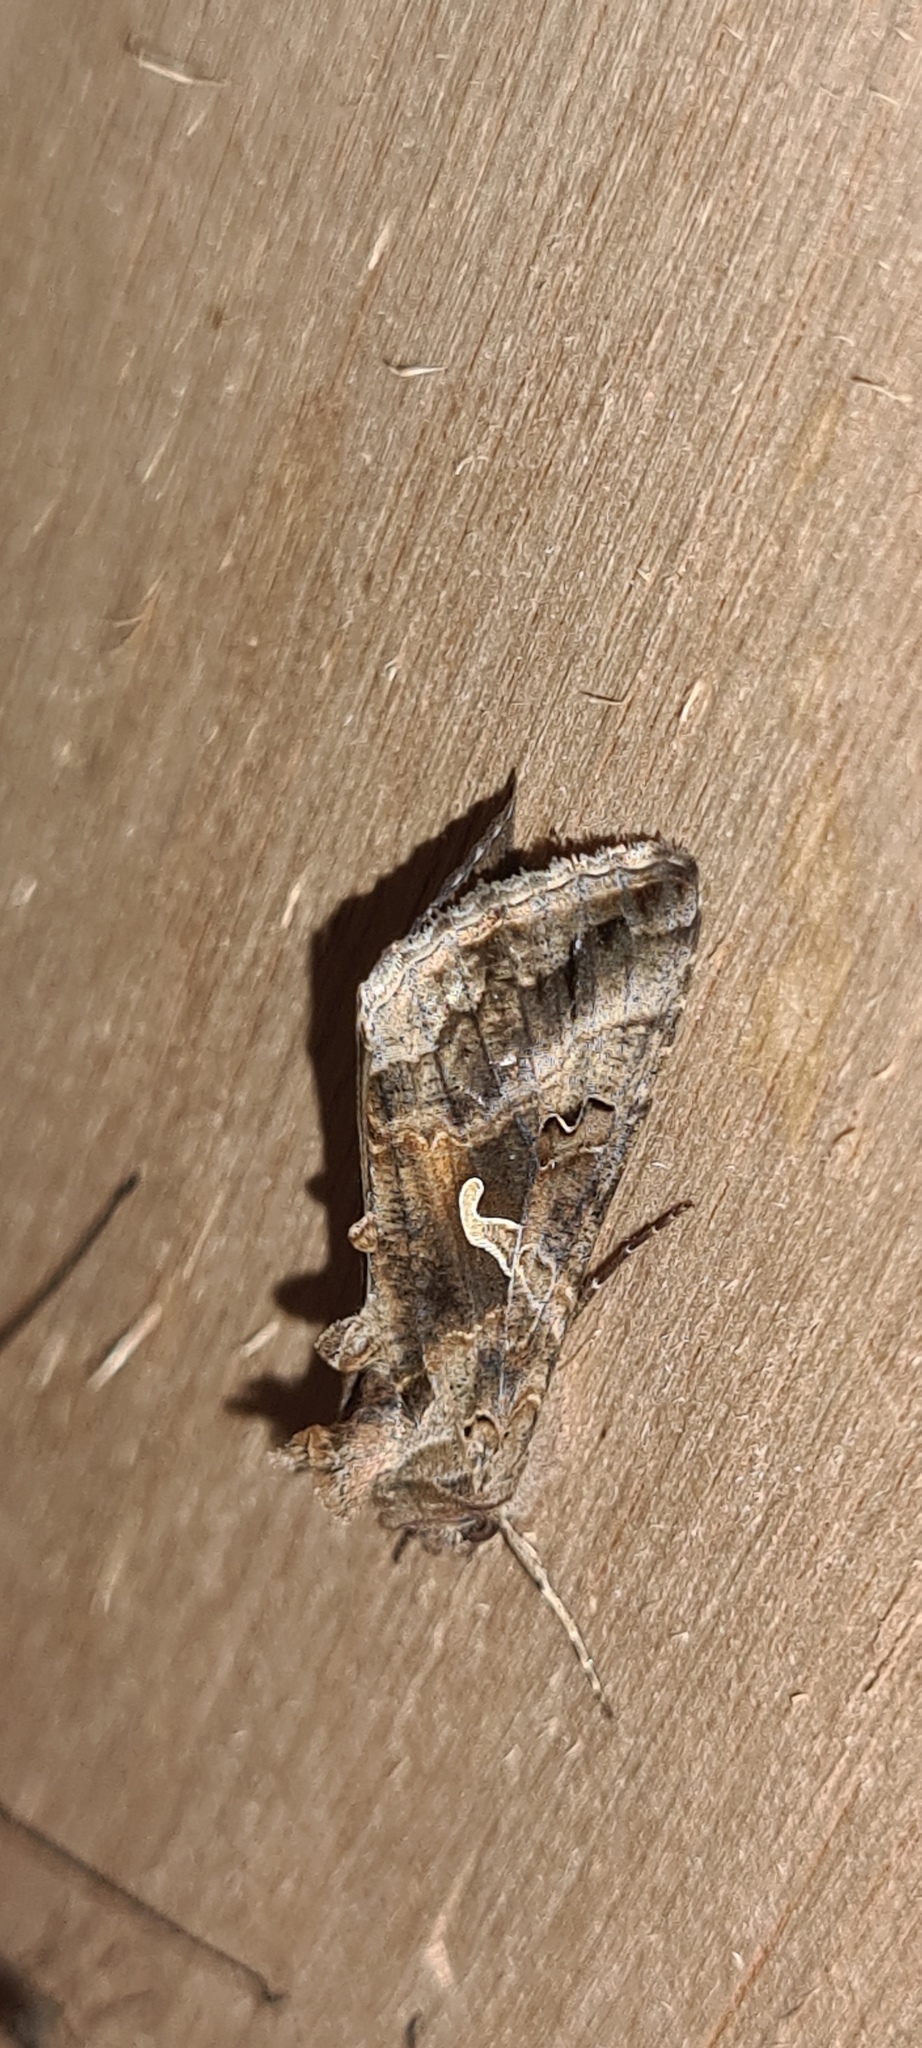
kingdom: Animalia
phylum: Arthropoda
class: Insecta
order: Lepidoptera
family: Noctuidae
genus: Autographa
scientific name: Autographa gamma
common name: Silver y
